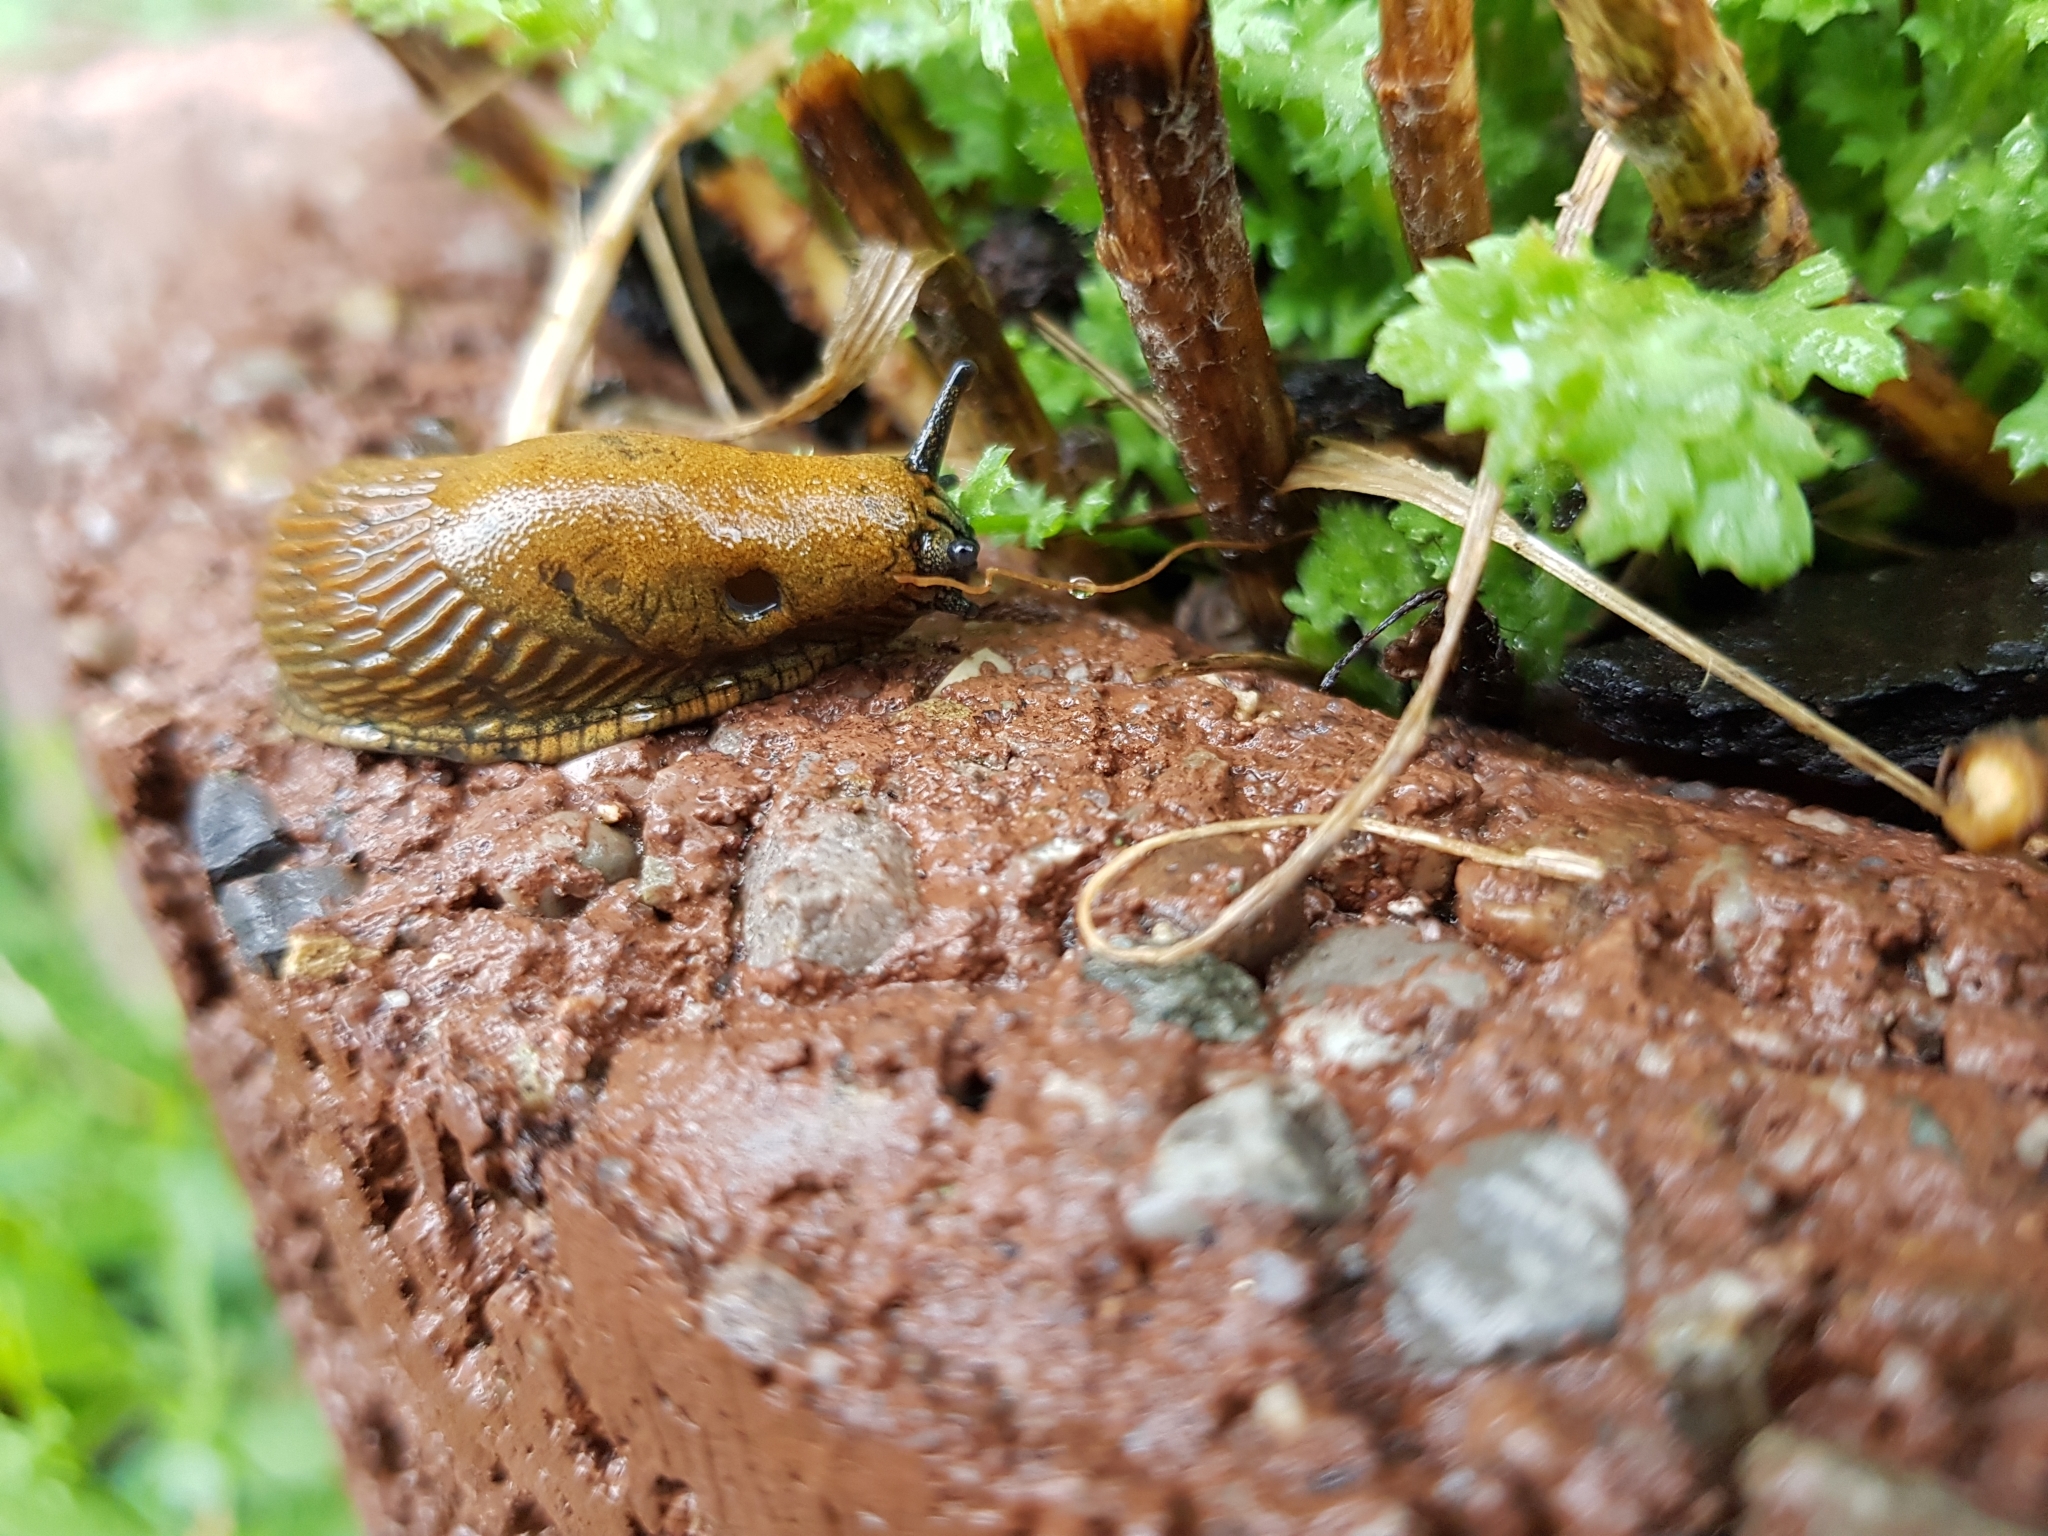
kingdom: Animalia
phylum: Mollusca
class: Gastropoda
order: Stylommatophora
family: Arionidae
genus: Arion
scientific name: Arion vulgaris
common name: Lusitanian slug
